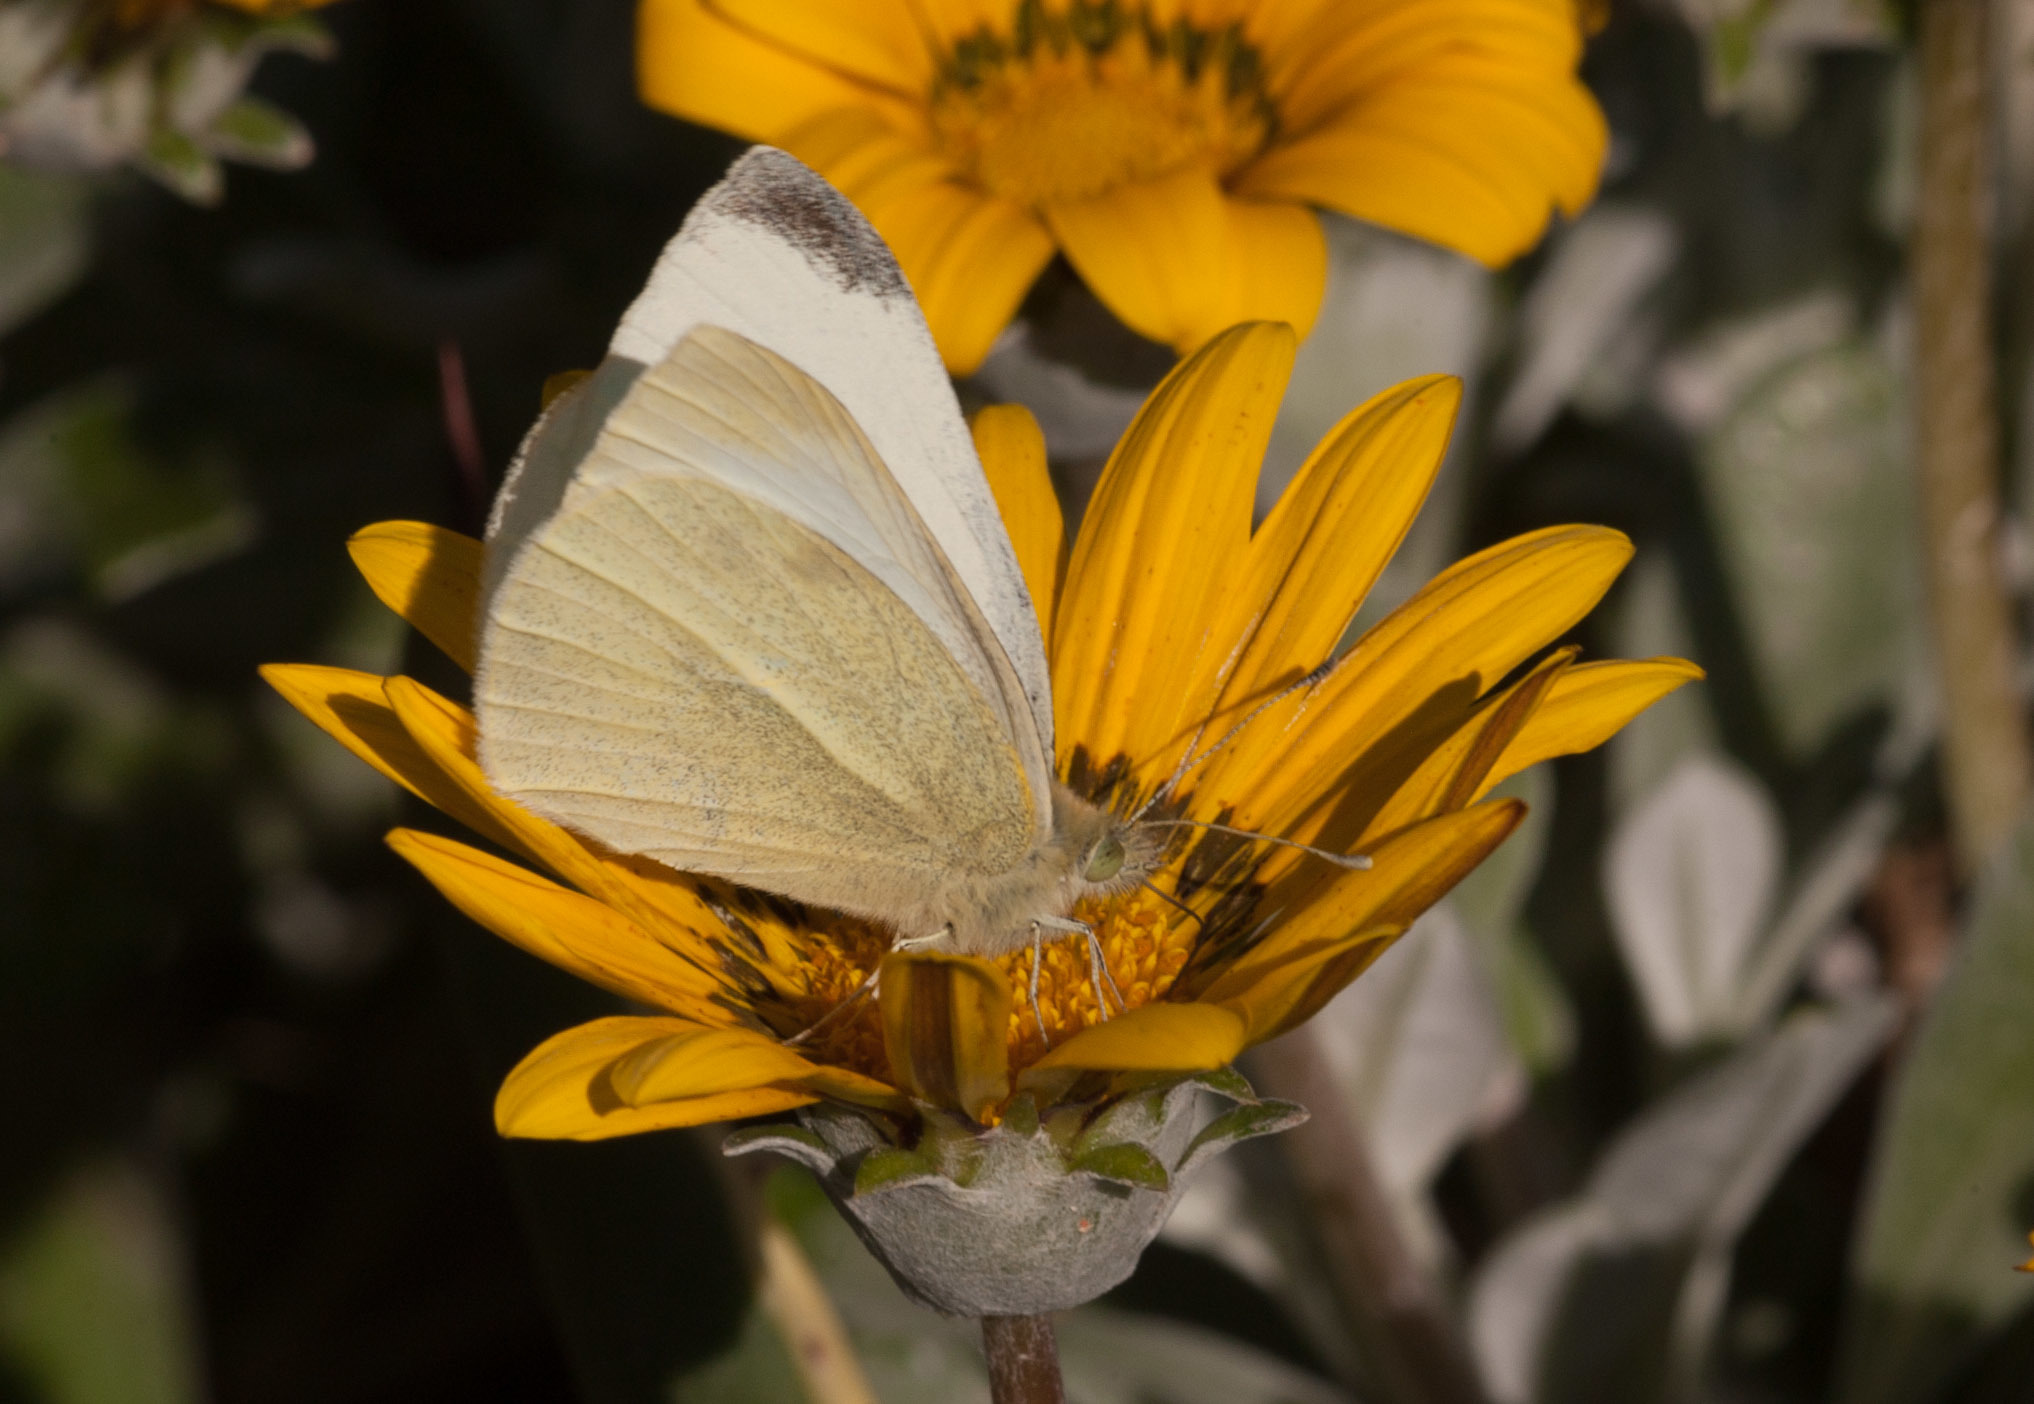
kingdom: Animalia
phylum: Arthropoda
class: Insecta
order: Lepidoptera
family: Pieridae
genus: Pieris
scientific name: Pieris rapae
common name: Small white
